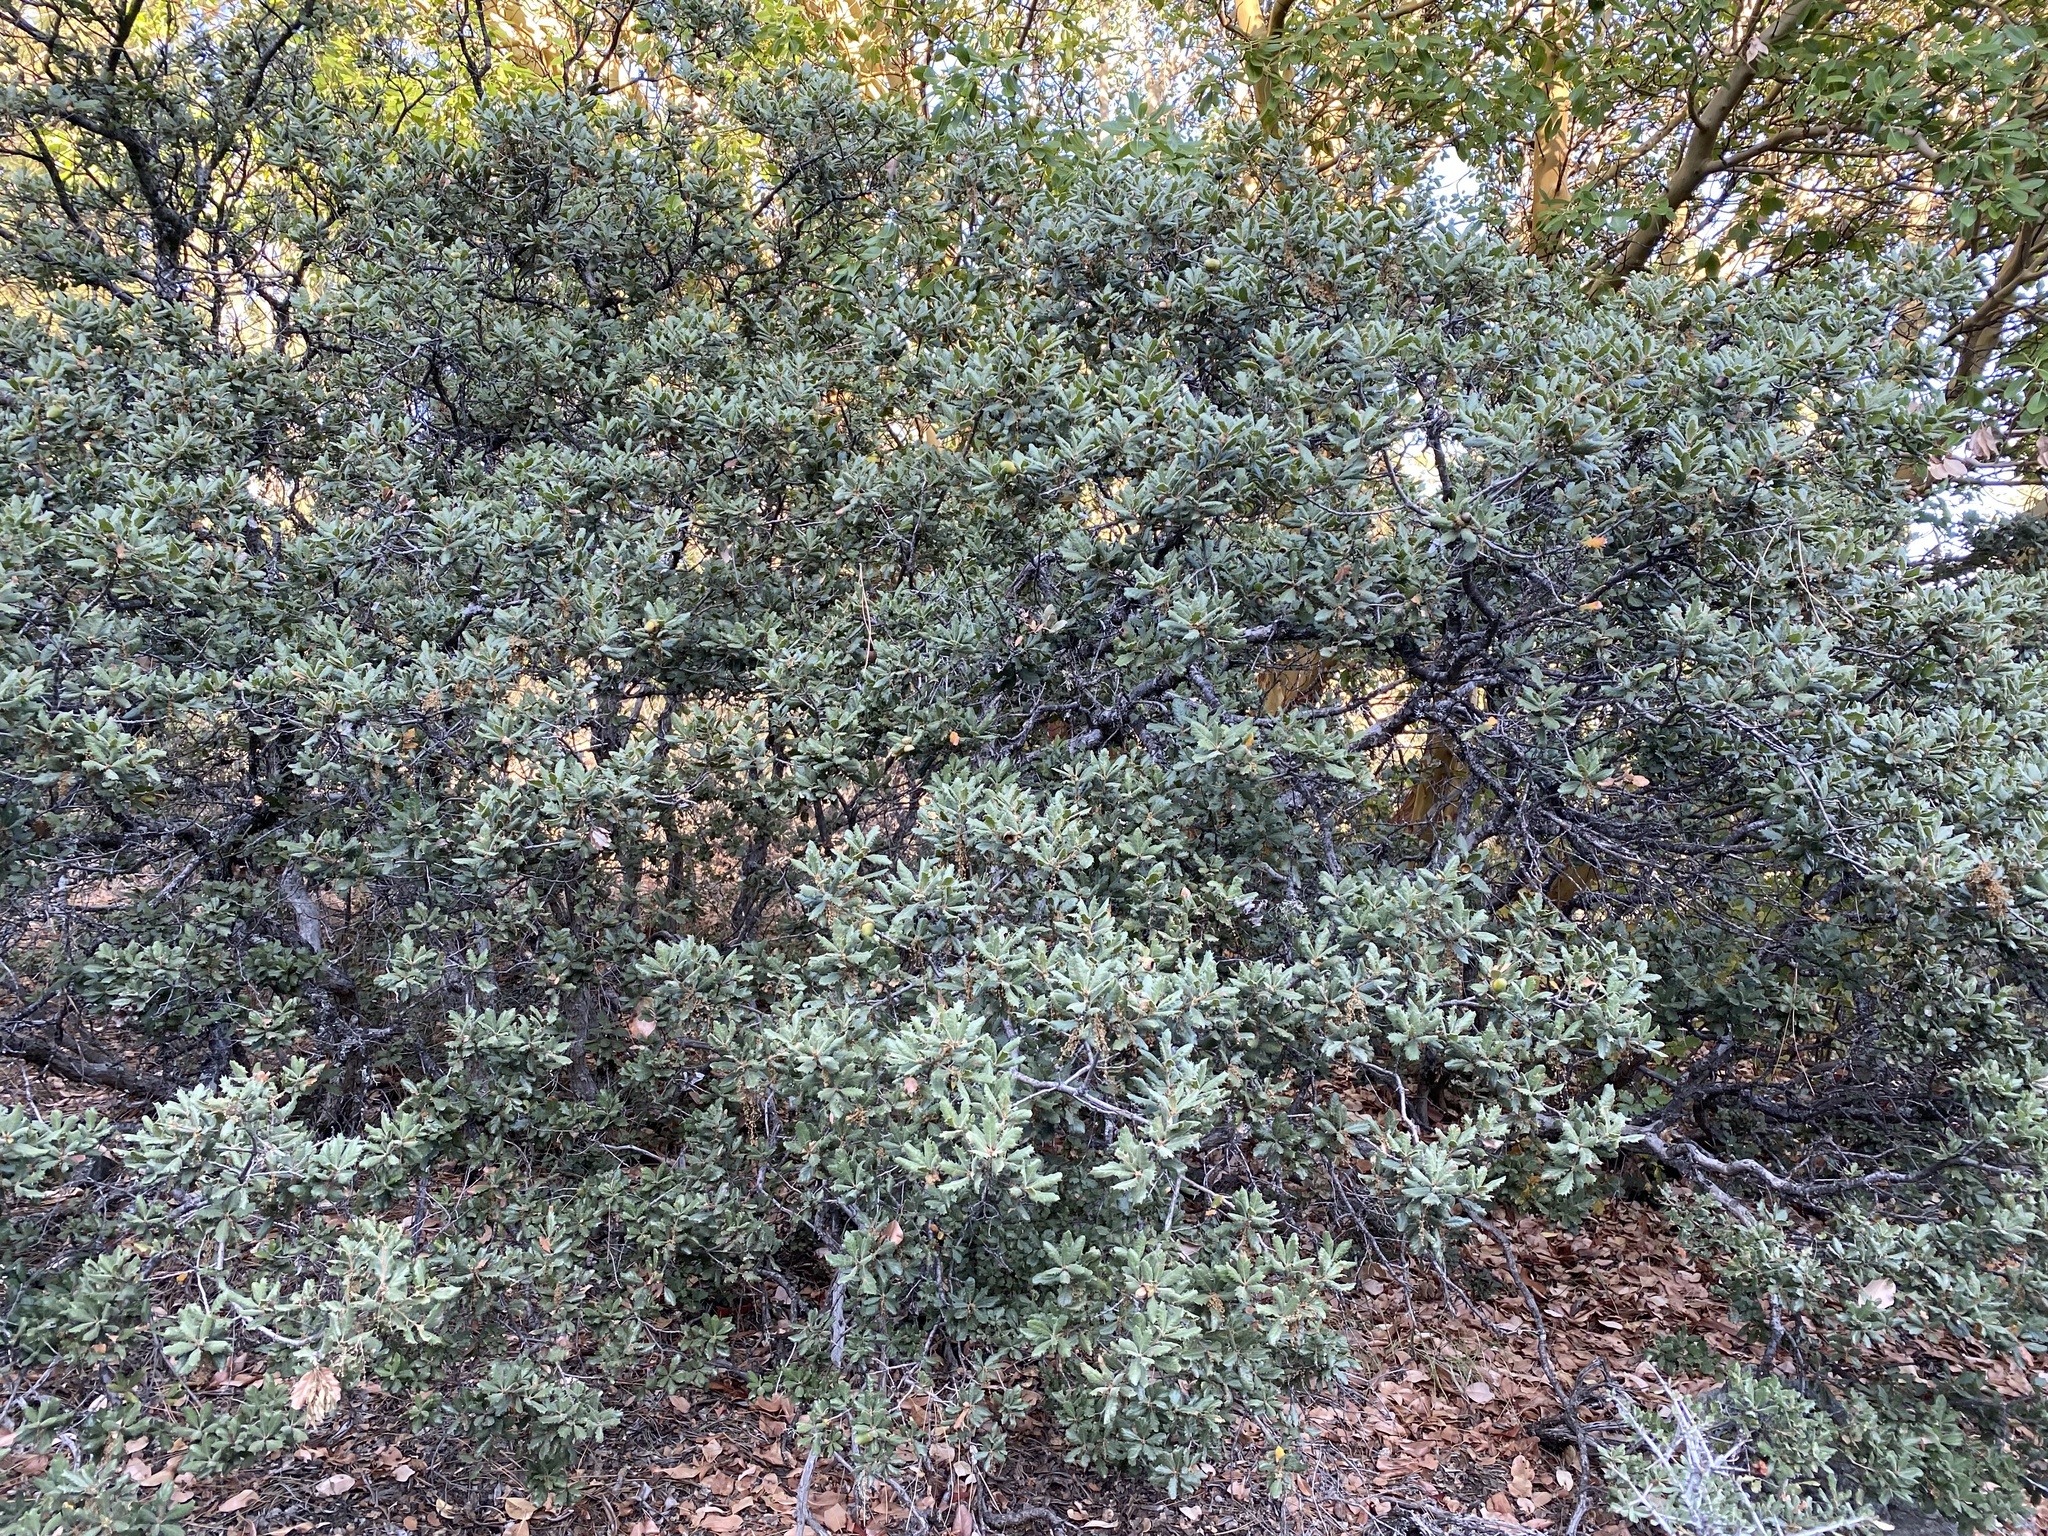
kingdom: Plantae
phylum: Tracheophyta
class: Magnoliopsida
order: Fagales
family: Fagaceae
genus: Quercus
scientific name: Quercus durata
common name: Leather oak
